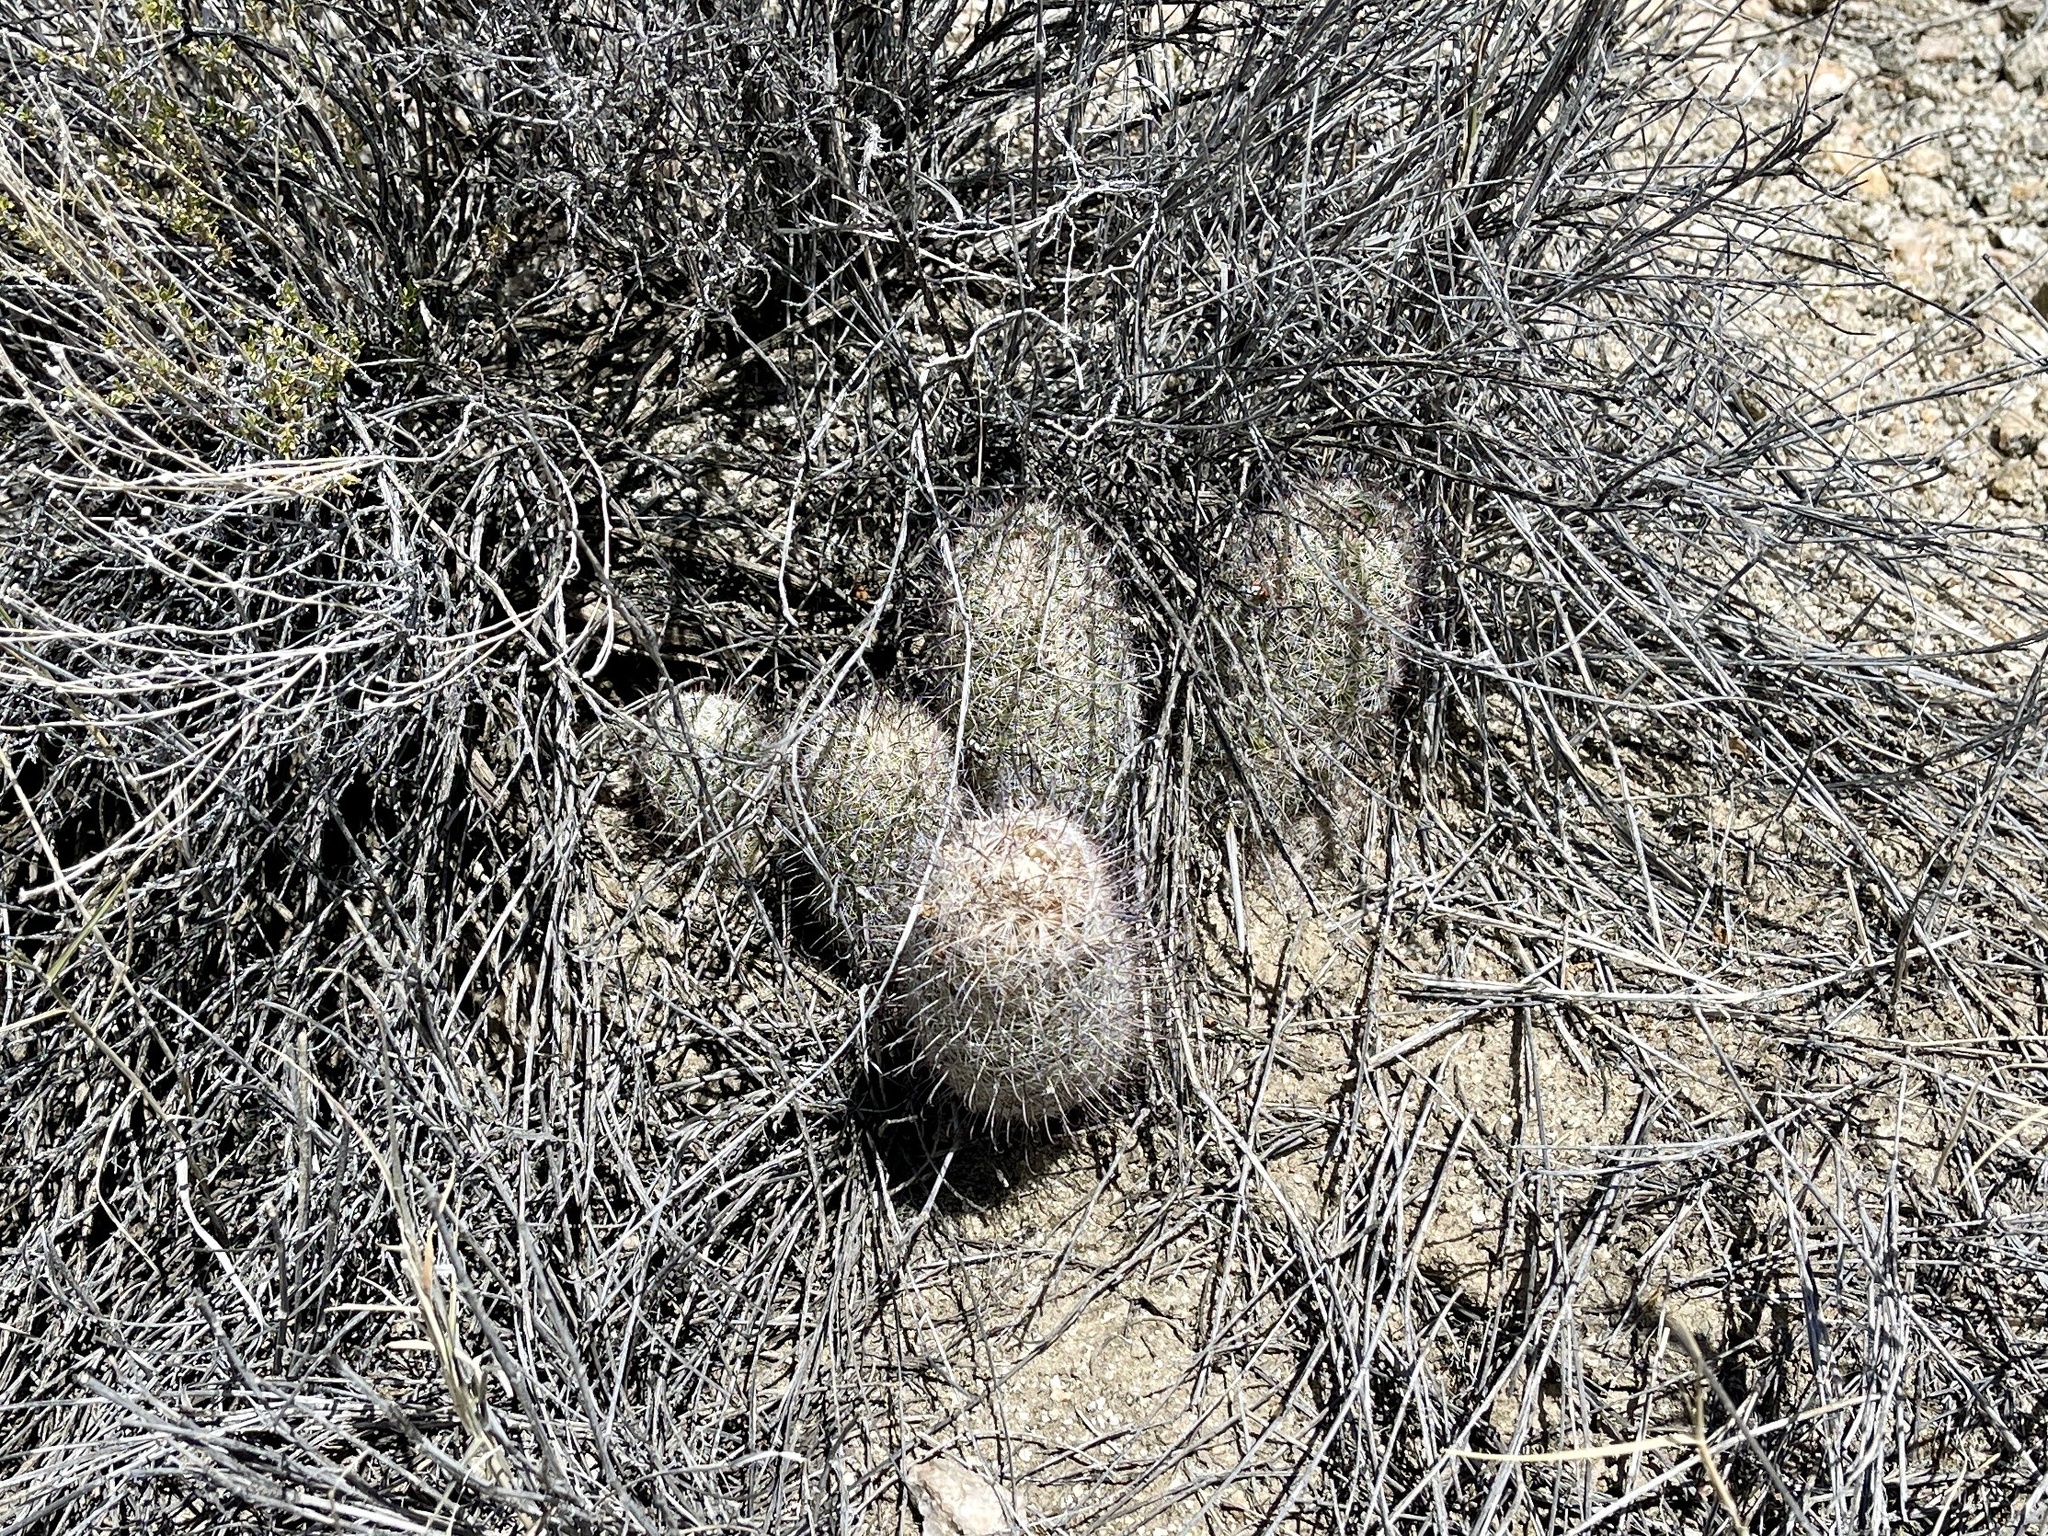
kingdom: Plantae
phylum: Tracheophyta
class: Magnoliopsida
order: Caryophyllales
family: Cactaceae
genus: Cochemiea
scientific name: Cochemiea grahamii
